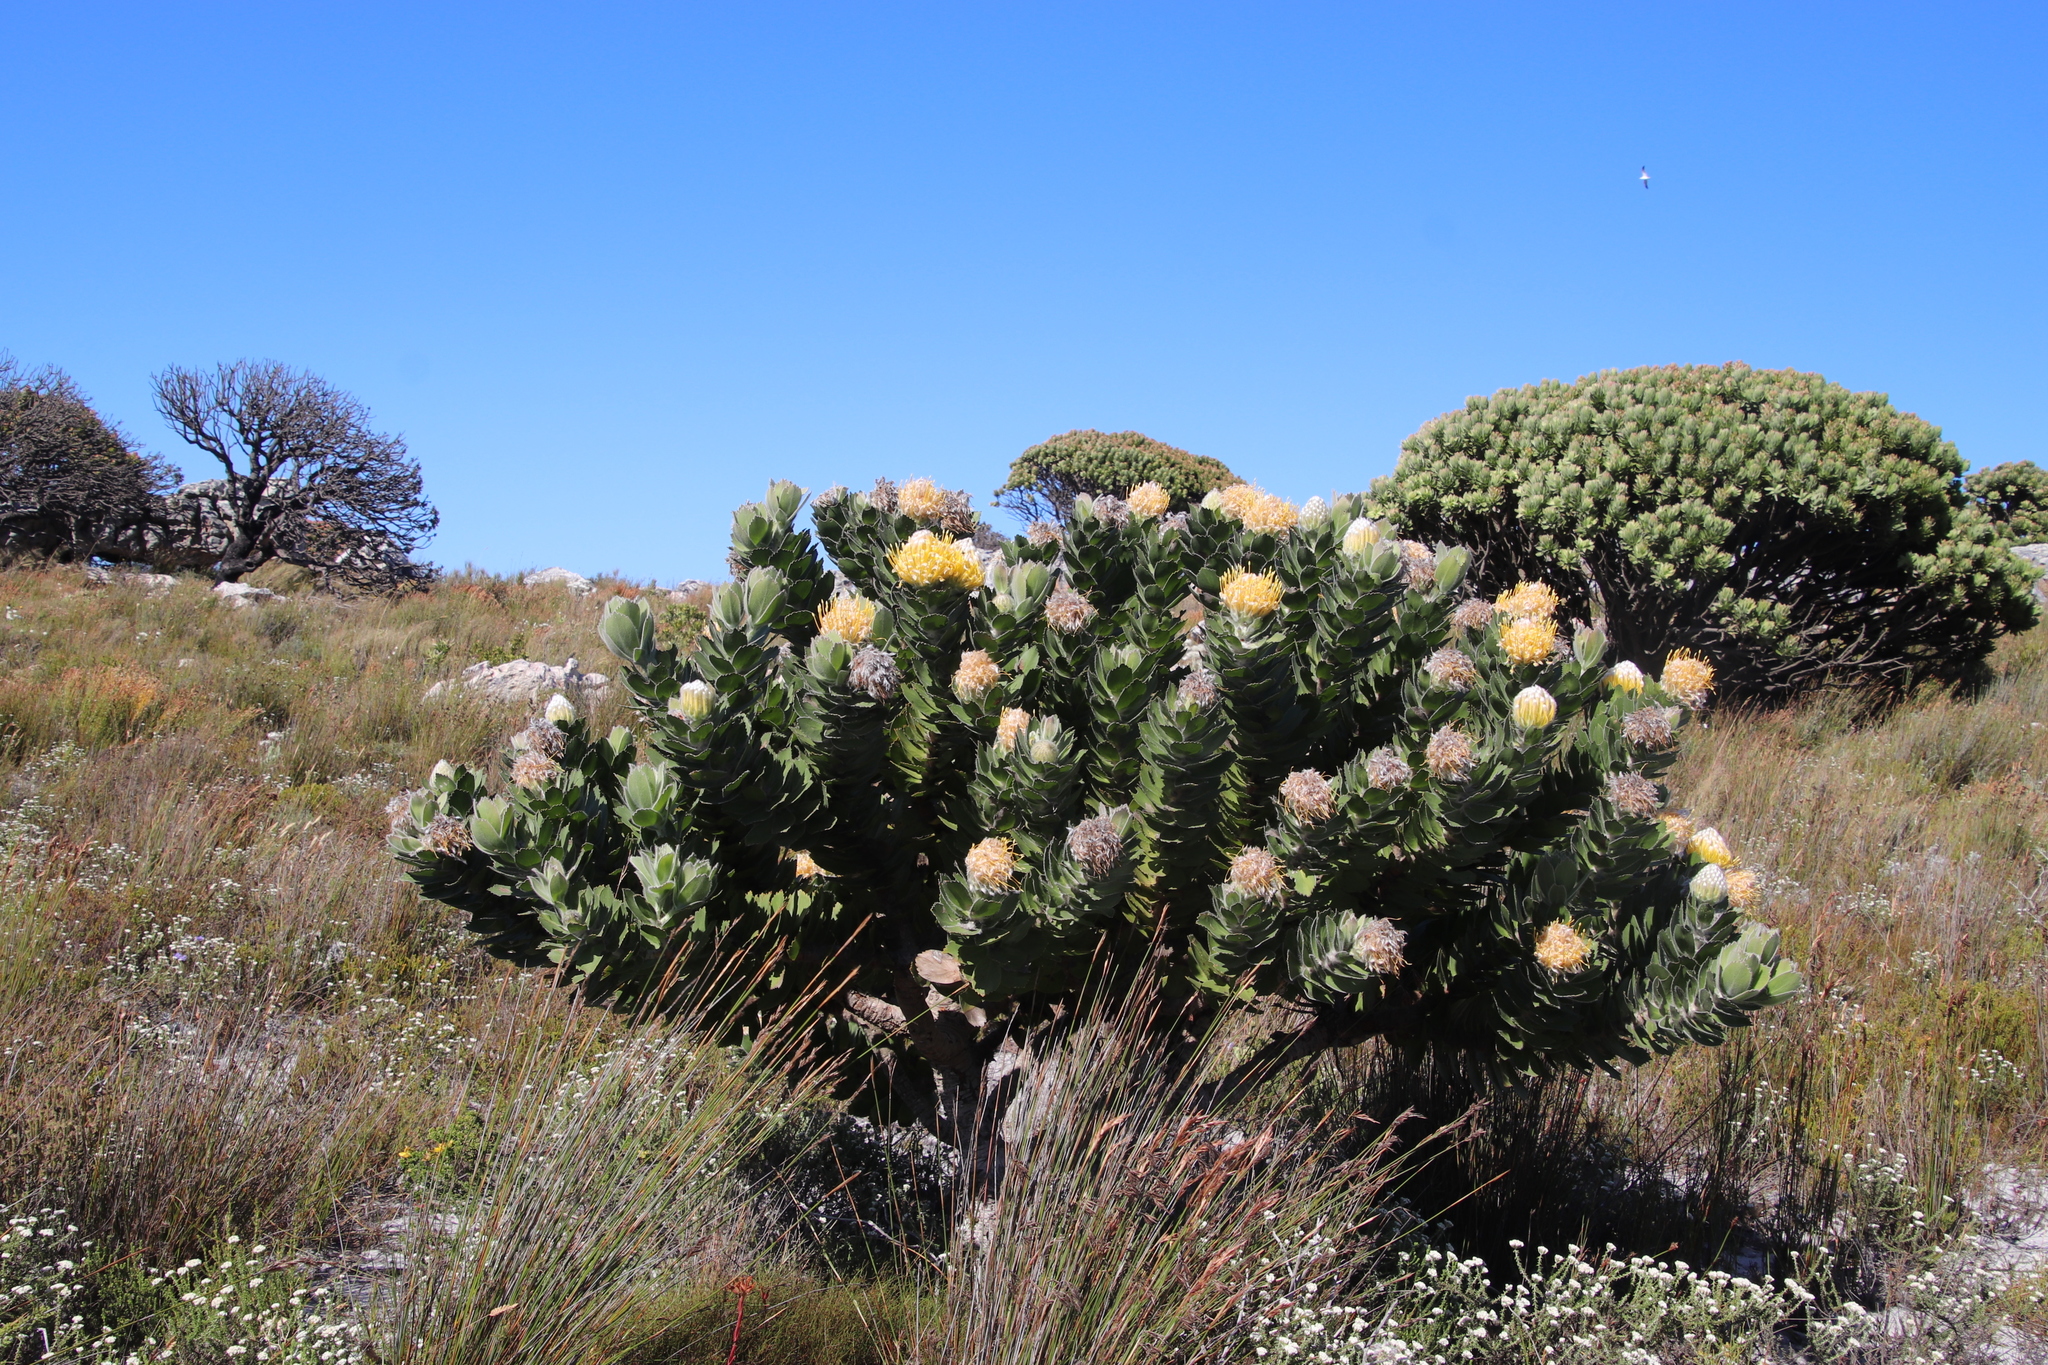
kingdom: Plantae
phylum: Tracheophyta
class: Magnoliopsida
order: Proteales
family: Proteaceae
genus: Leucospermum
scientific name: Leucospermum conocarpodendron
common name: Tree pincushion
